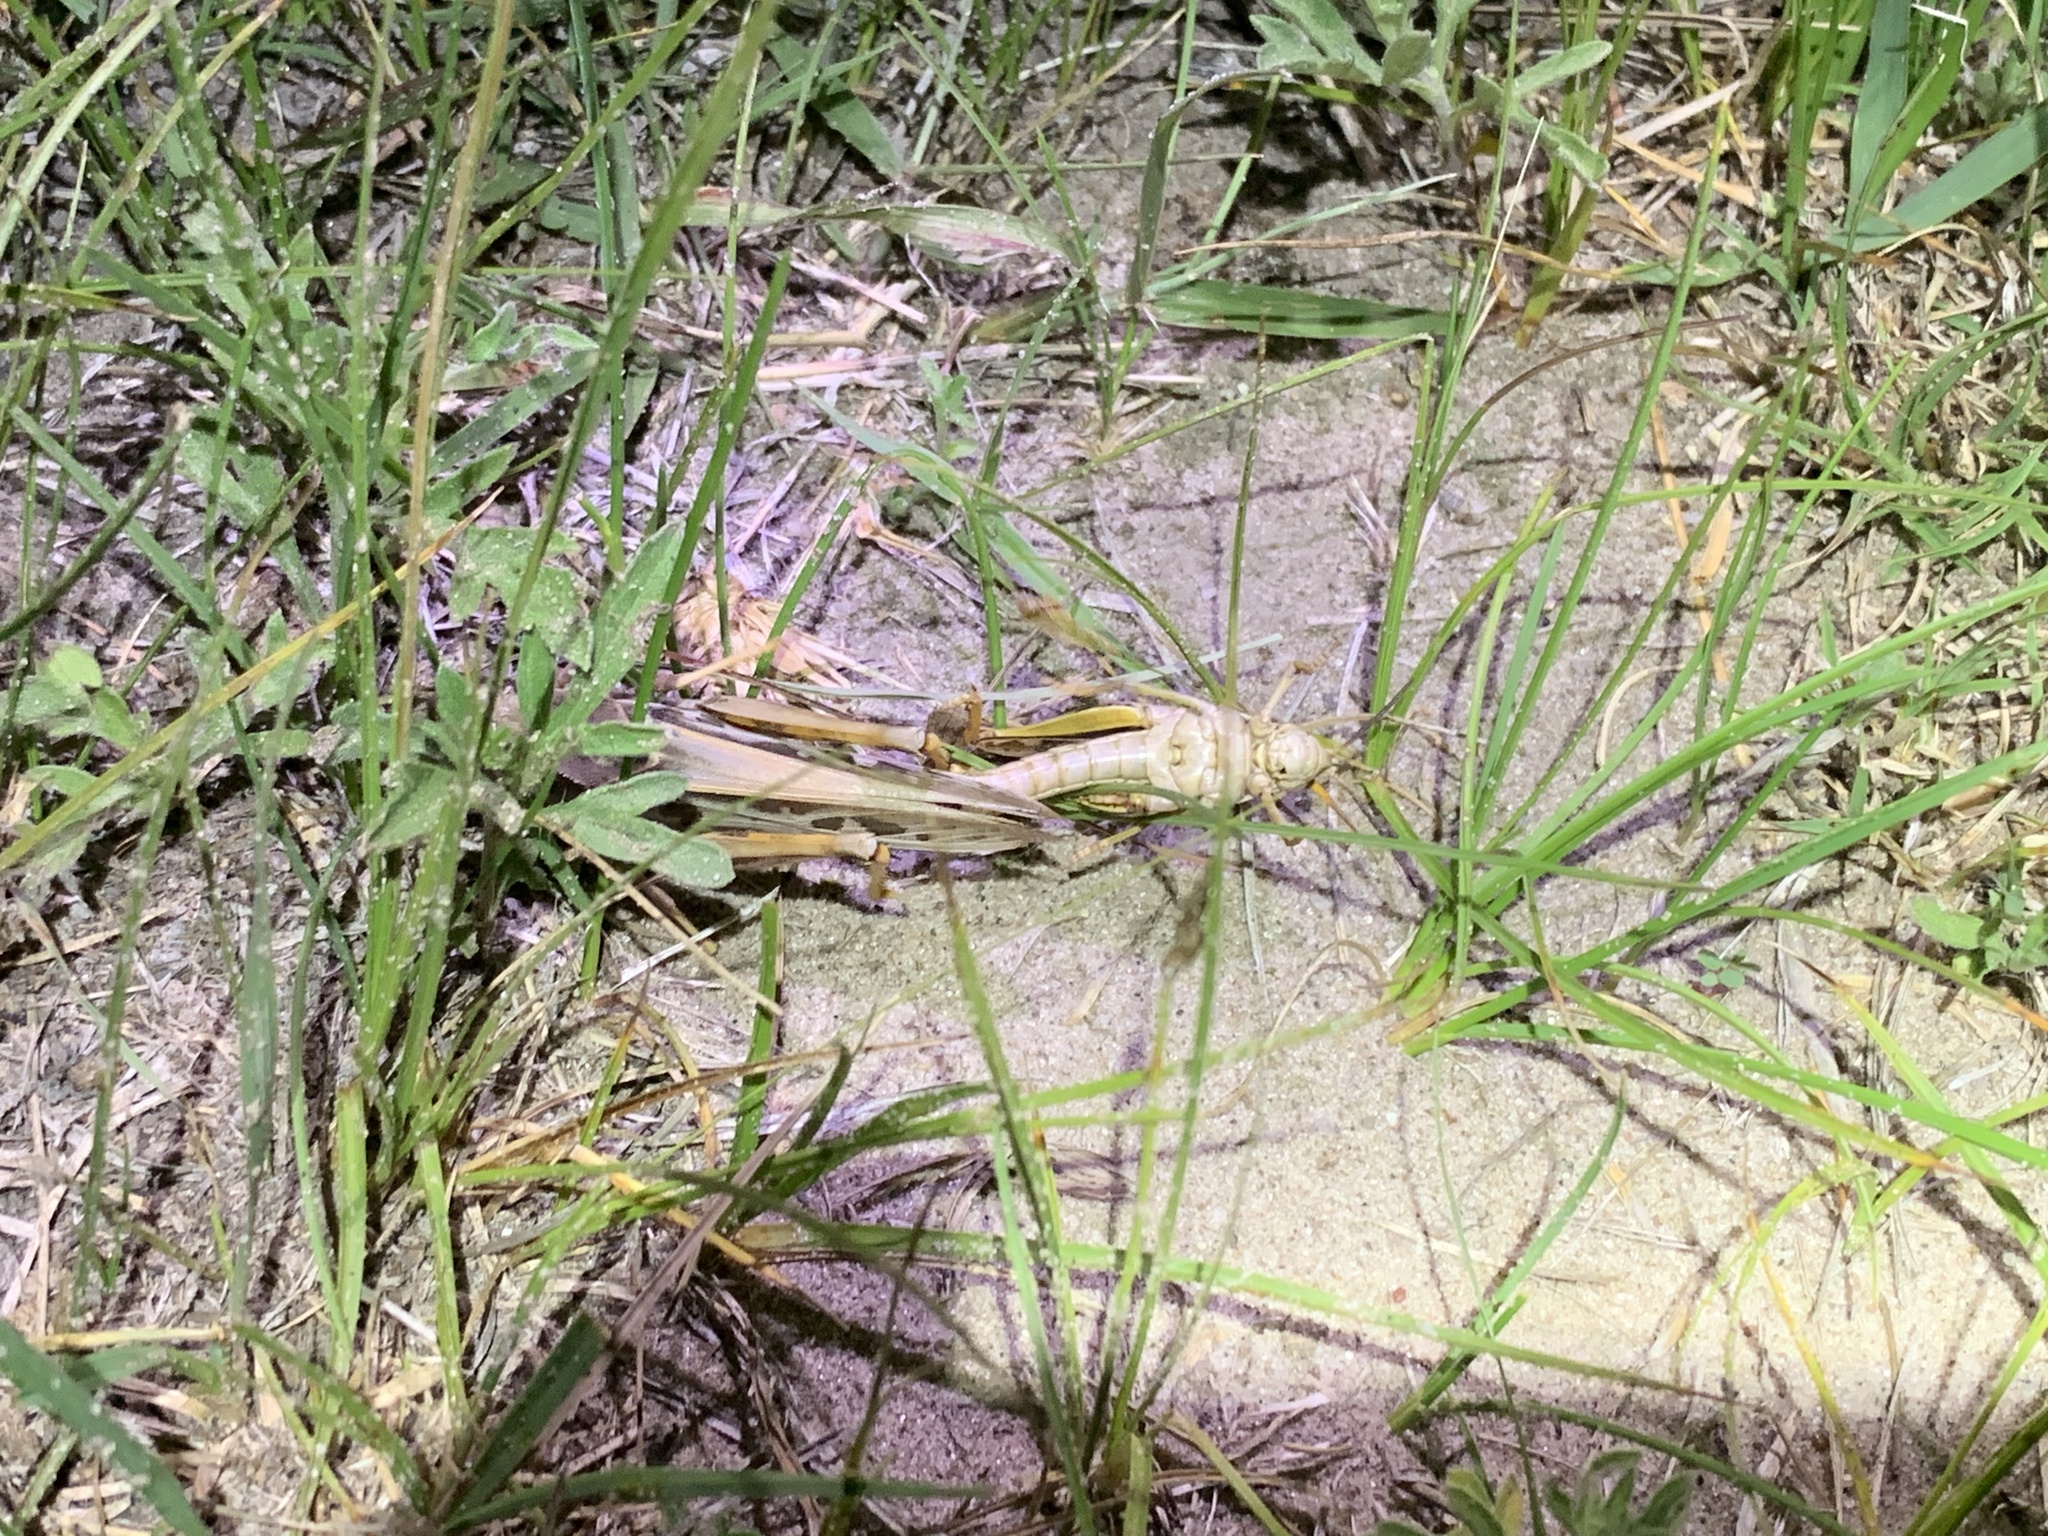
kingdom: Animalia
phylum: Arthropoda
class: Insecta
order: Orthoptera
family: Acrididae
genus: Pardalophora
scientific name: Pardalophora apiculata
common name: Coral-winged locust
